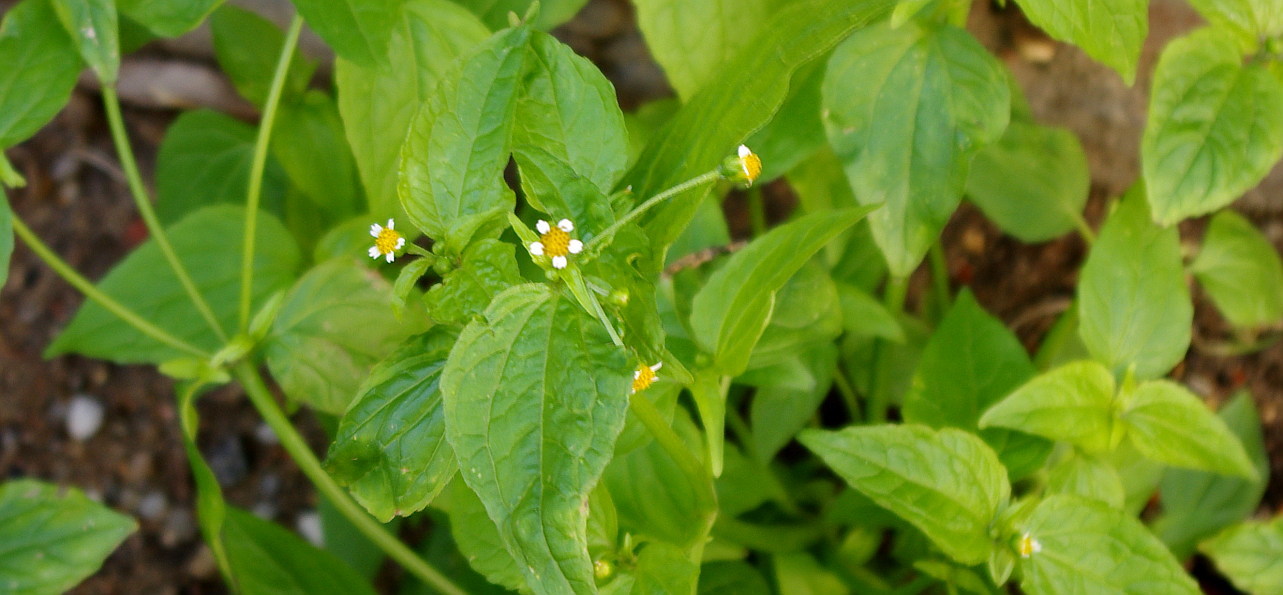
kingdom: Plantae
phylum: Tracheophyta
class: Magnoliopsida
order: Asterales
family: Asteraceae
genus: Galinsoga
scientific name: Galinsoga parviflora
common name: Gallant soldier
